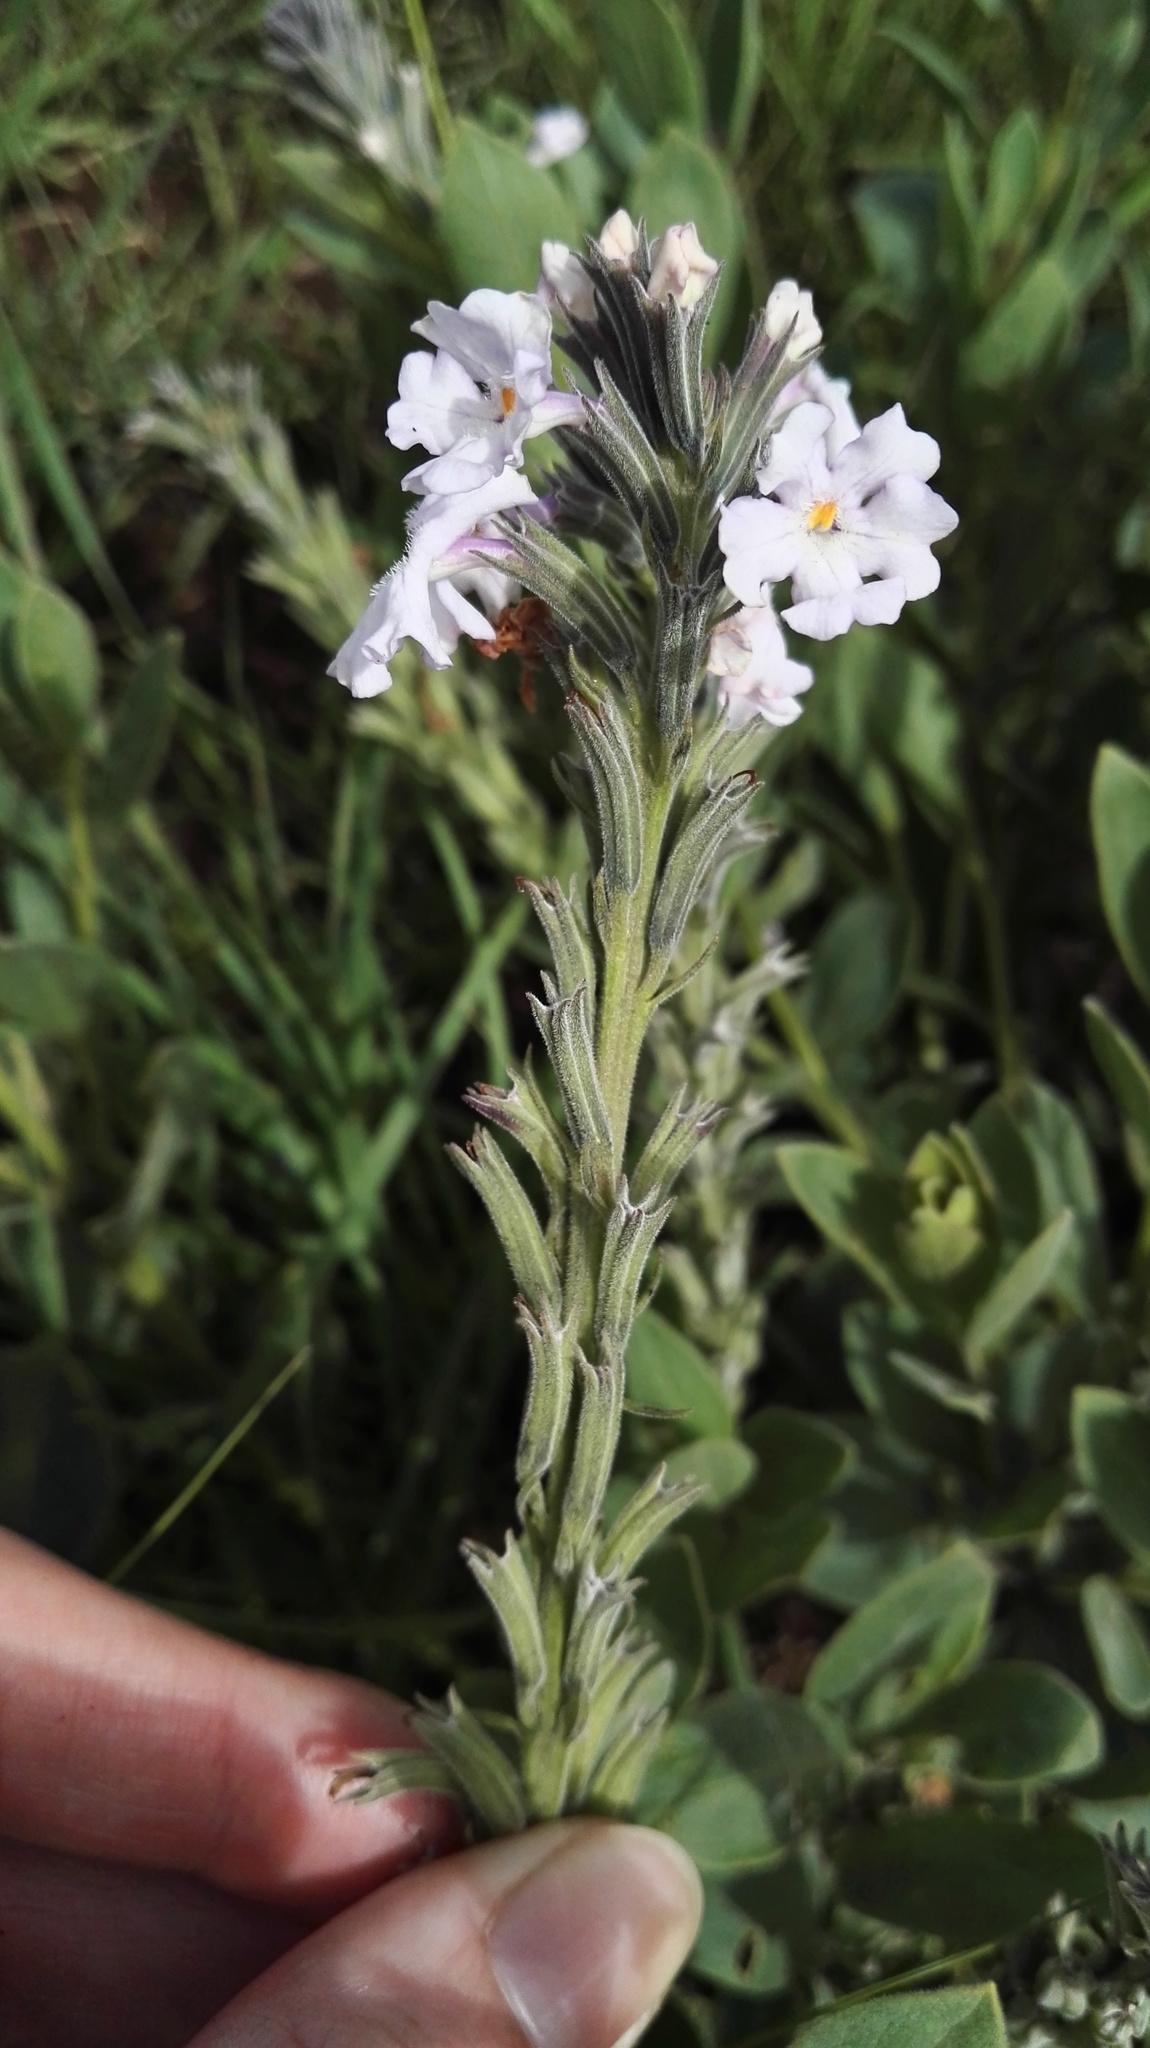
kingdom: Plantae
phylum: Tracheophyta
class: Magnoliopsida
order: Lamiales
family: Verbenaceae
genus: Chascanum
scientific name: Chascanum latifolium
